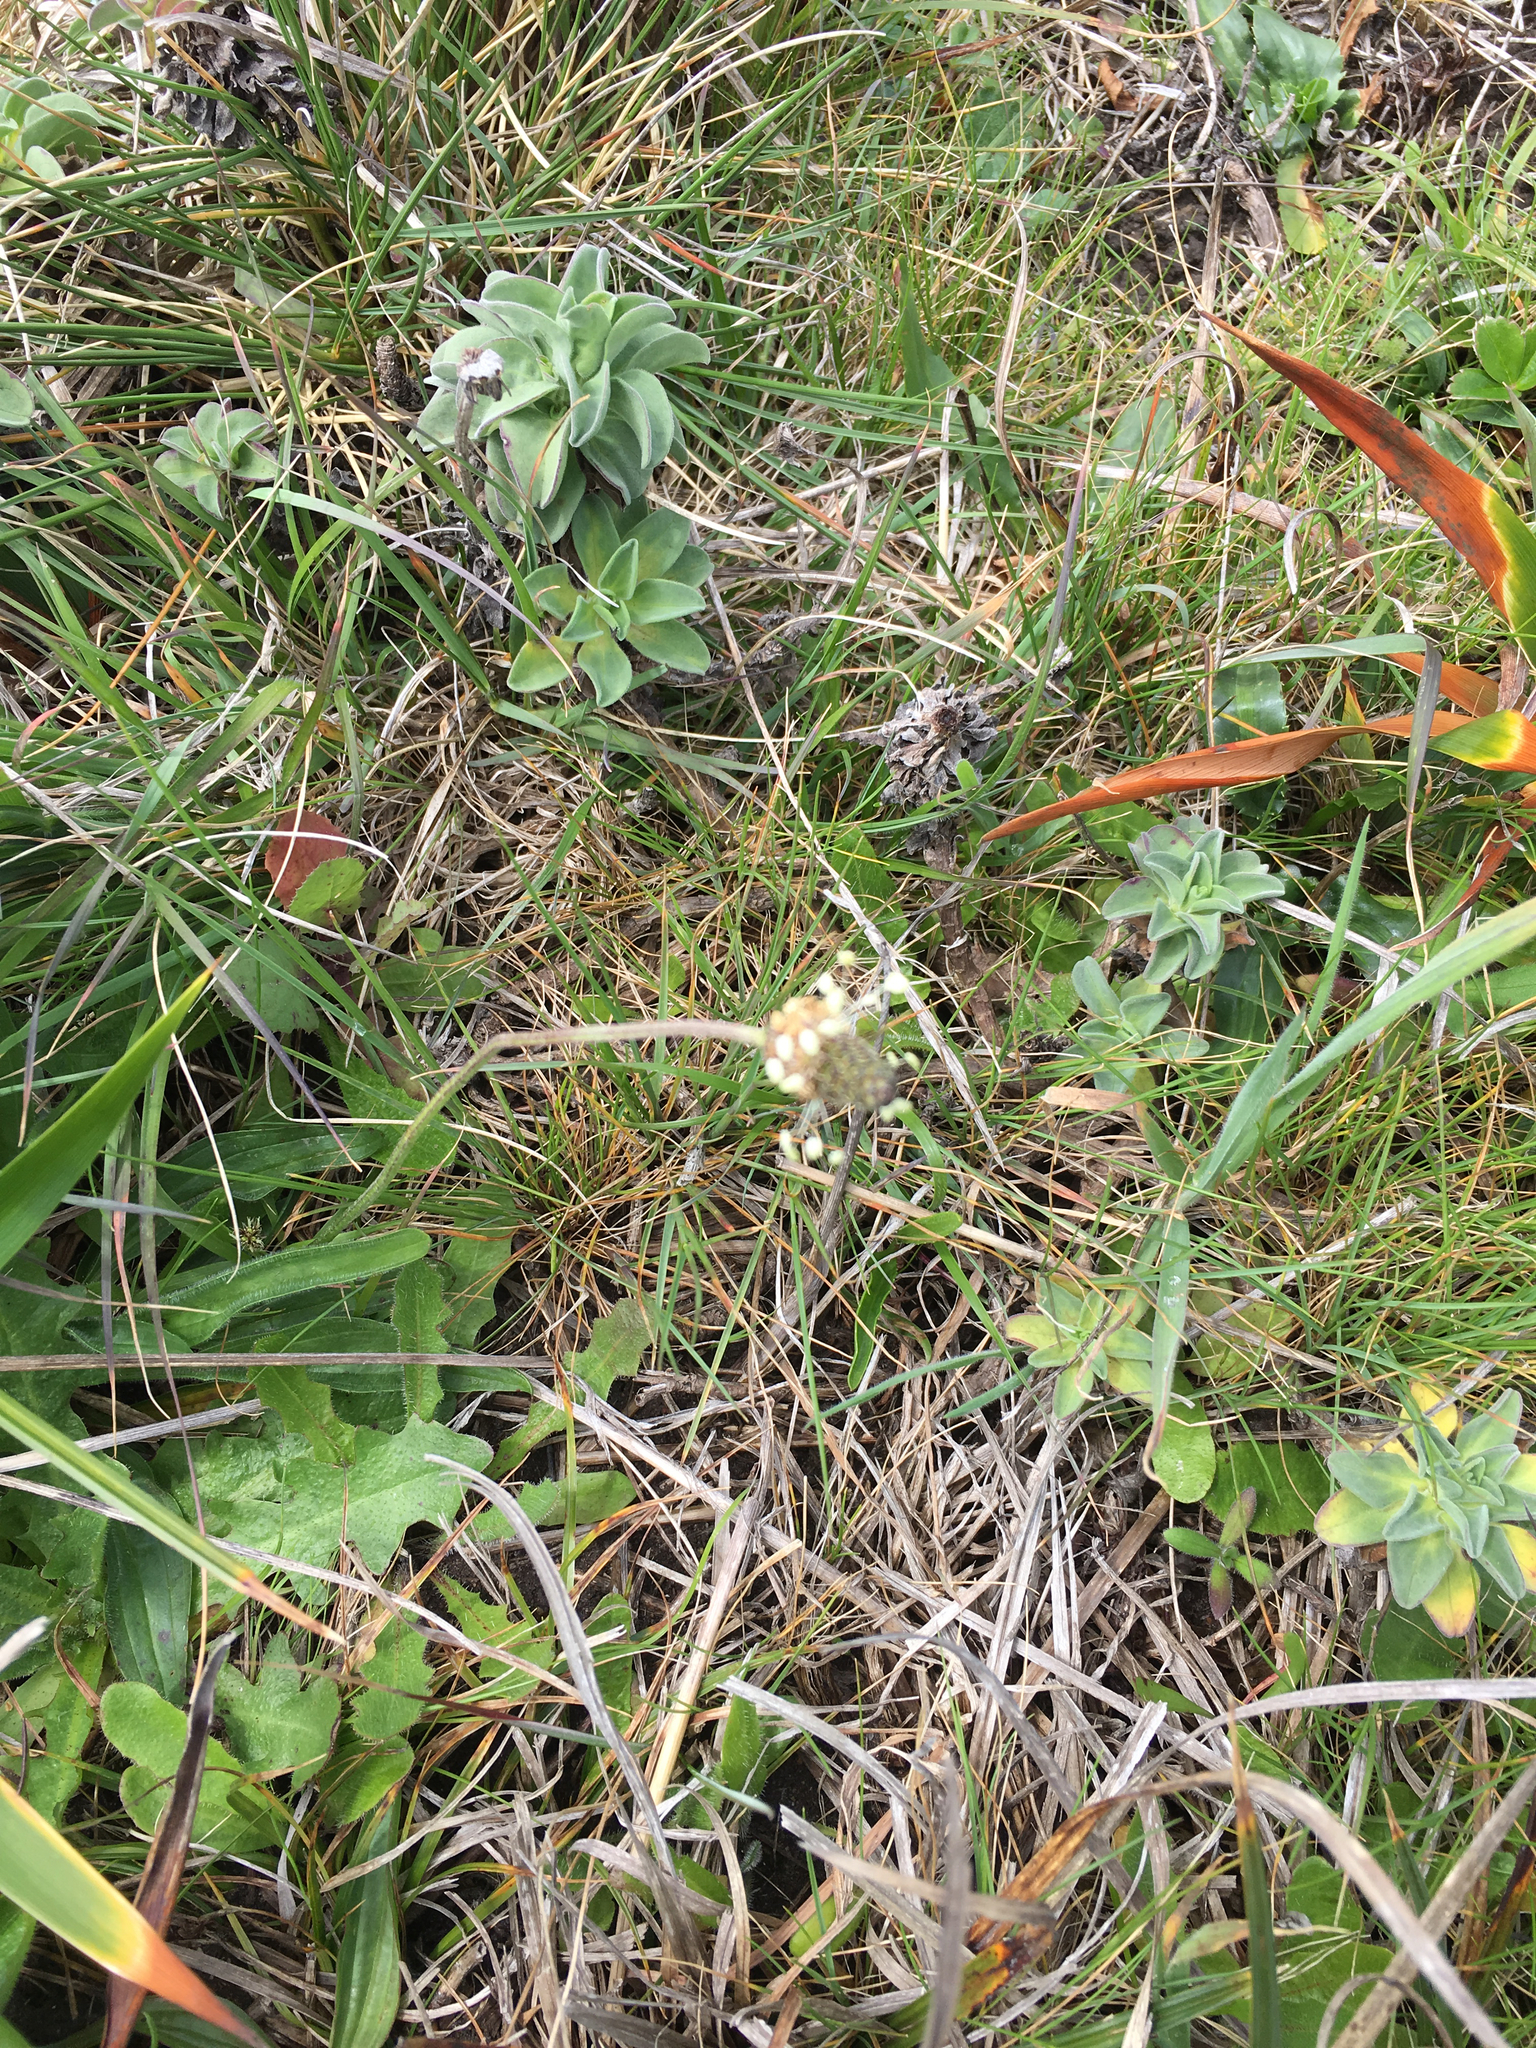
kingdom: Plantae
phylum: Tracheophyta
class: Magnoliopsida
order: Lamiales
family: Plantaginaceae
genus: Plantago
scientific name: Plantago lanceolata
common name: Ribwort plantain
